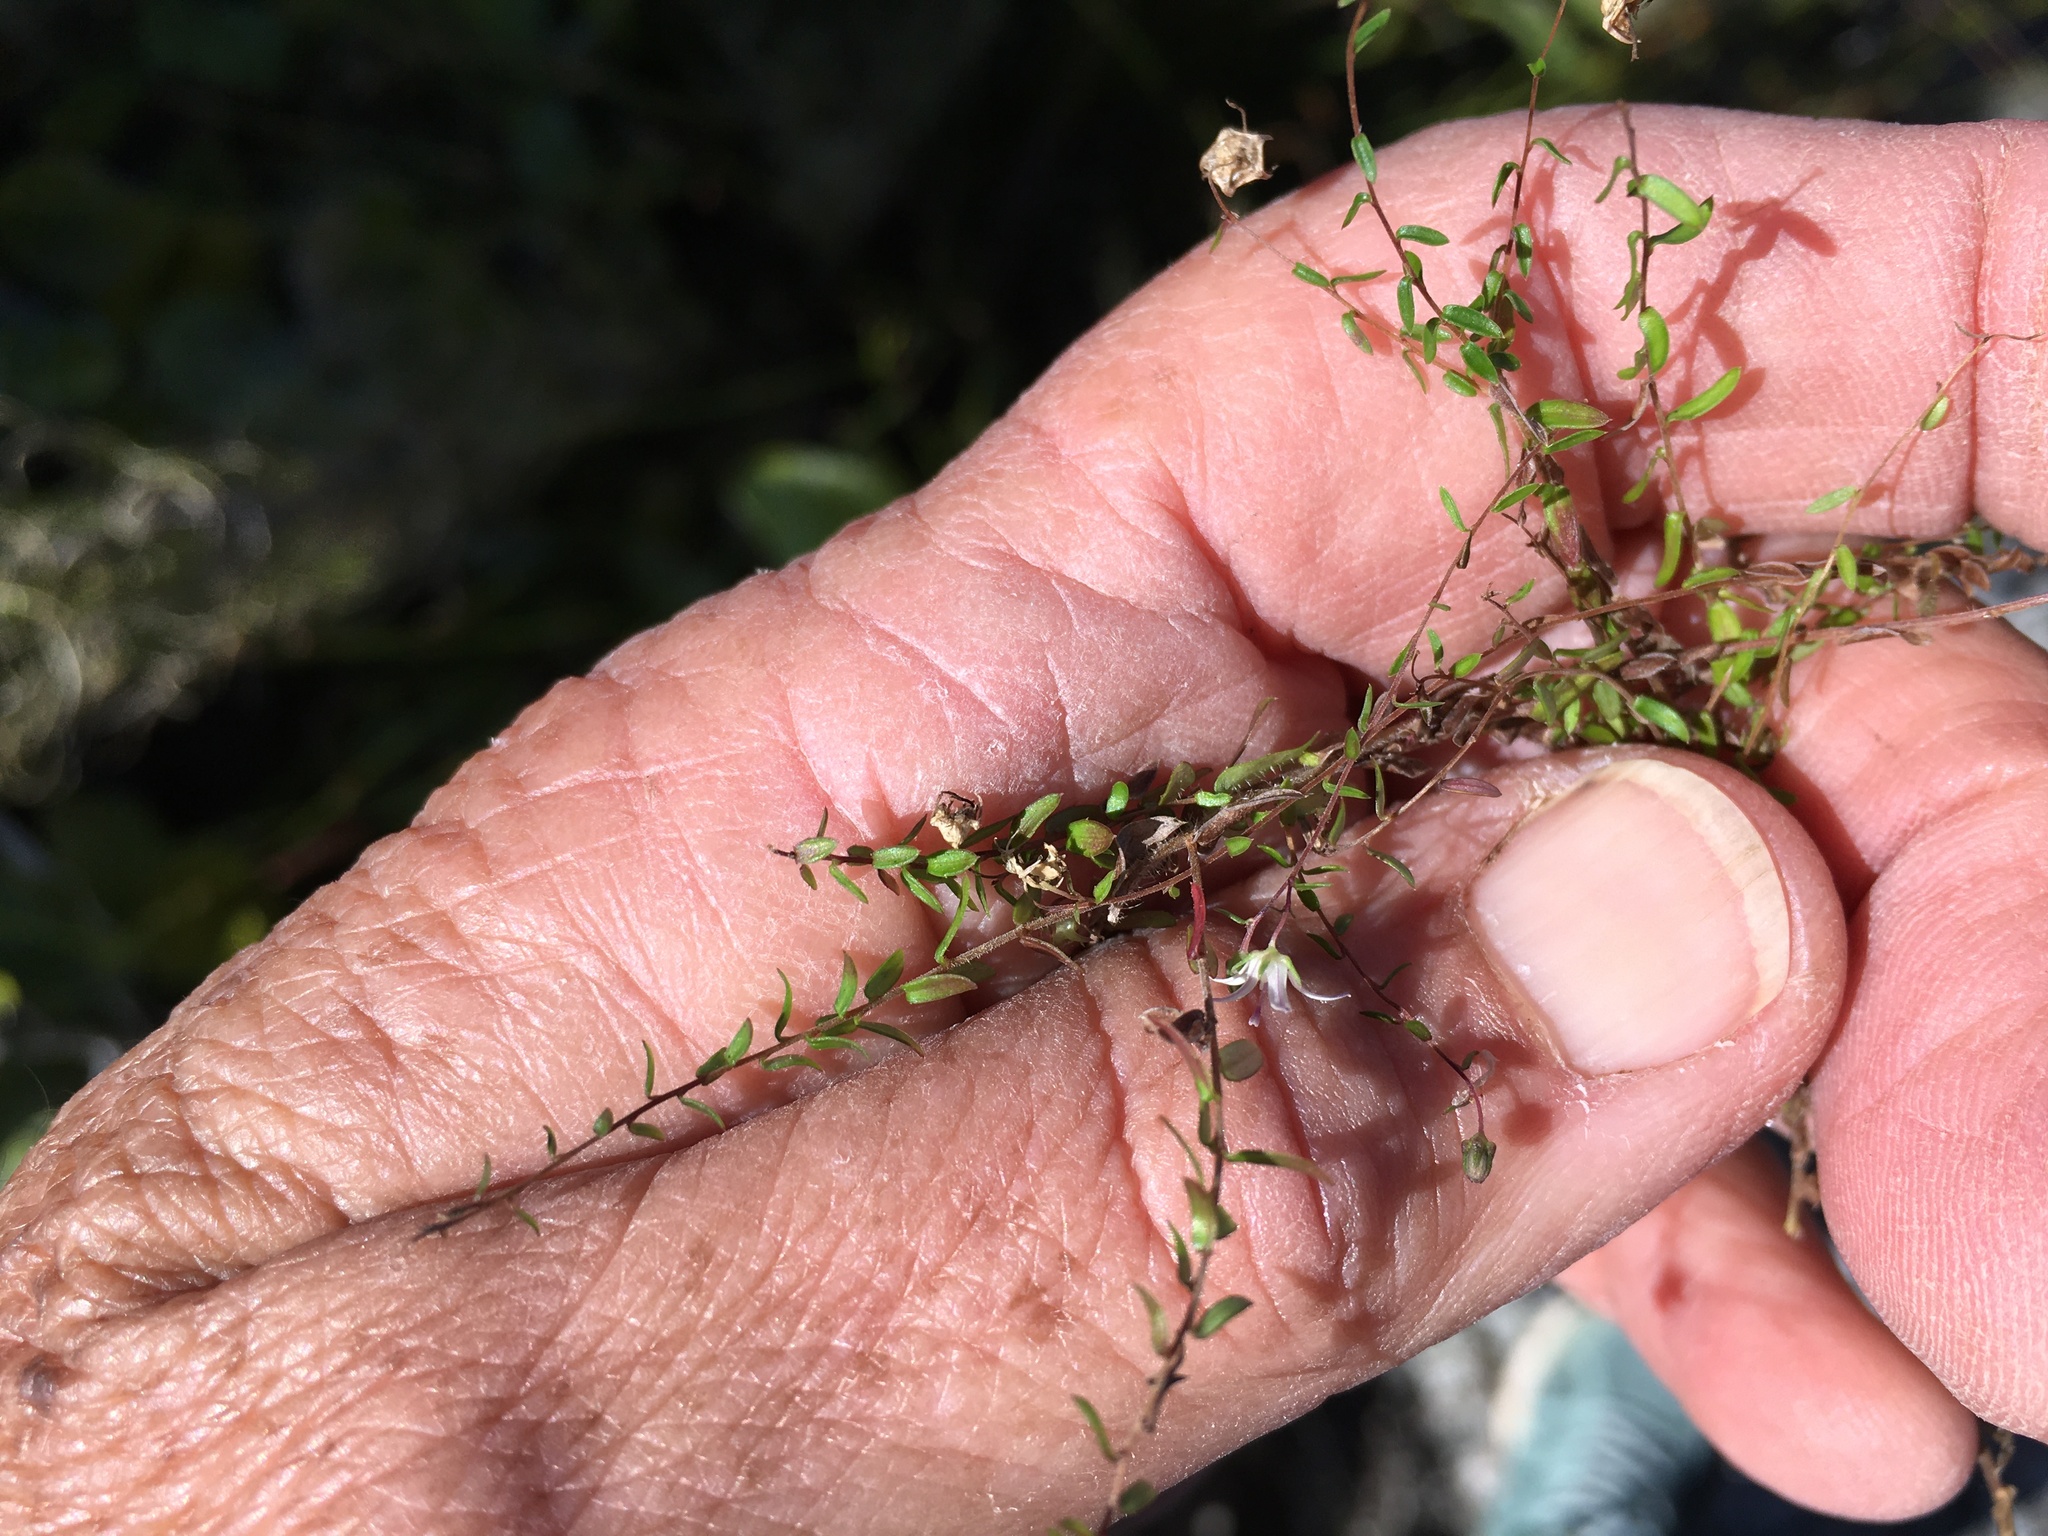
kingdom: Plantae
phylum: Tracheophyta
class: Magnoliopsida
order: Asterales
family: Campanulaceae
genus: Wahlenbergia
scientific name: Wahlenbergia parvifolia
